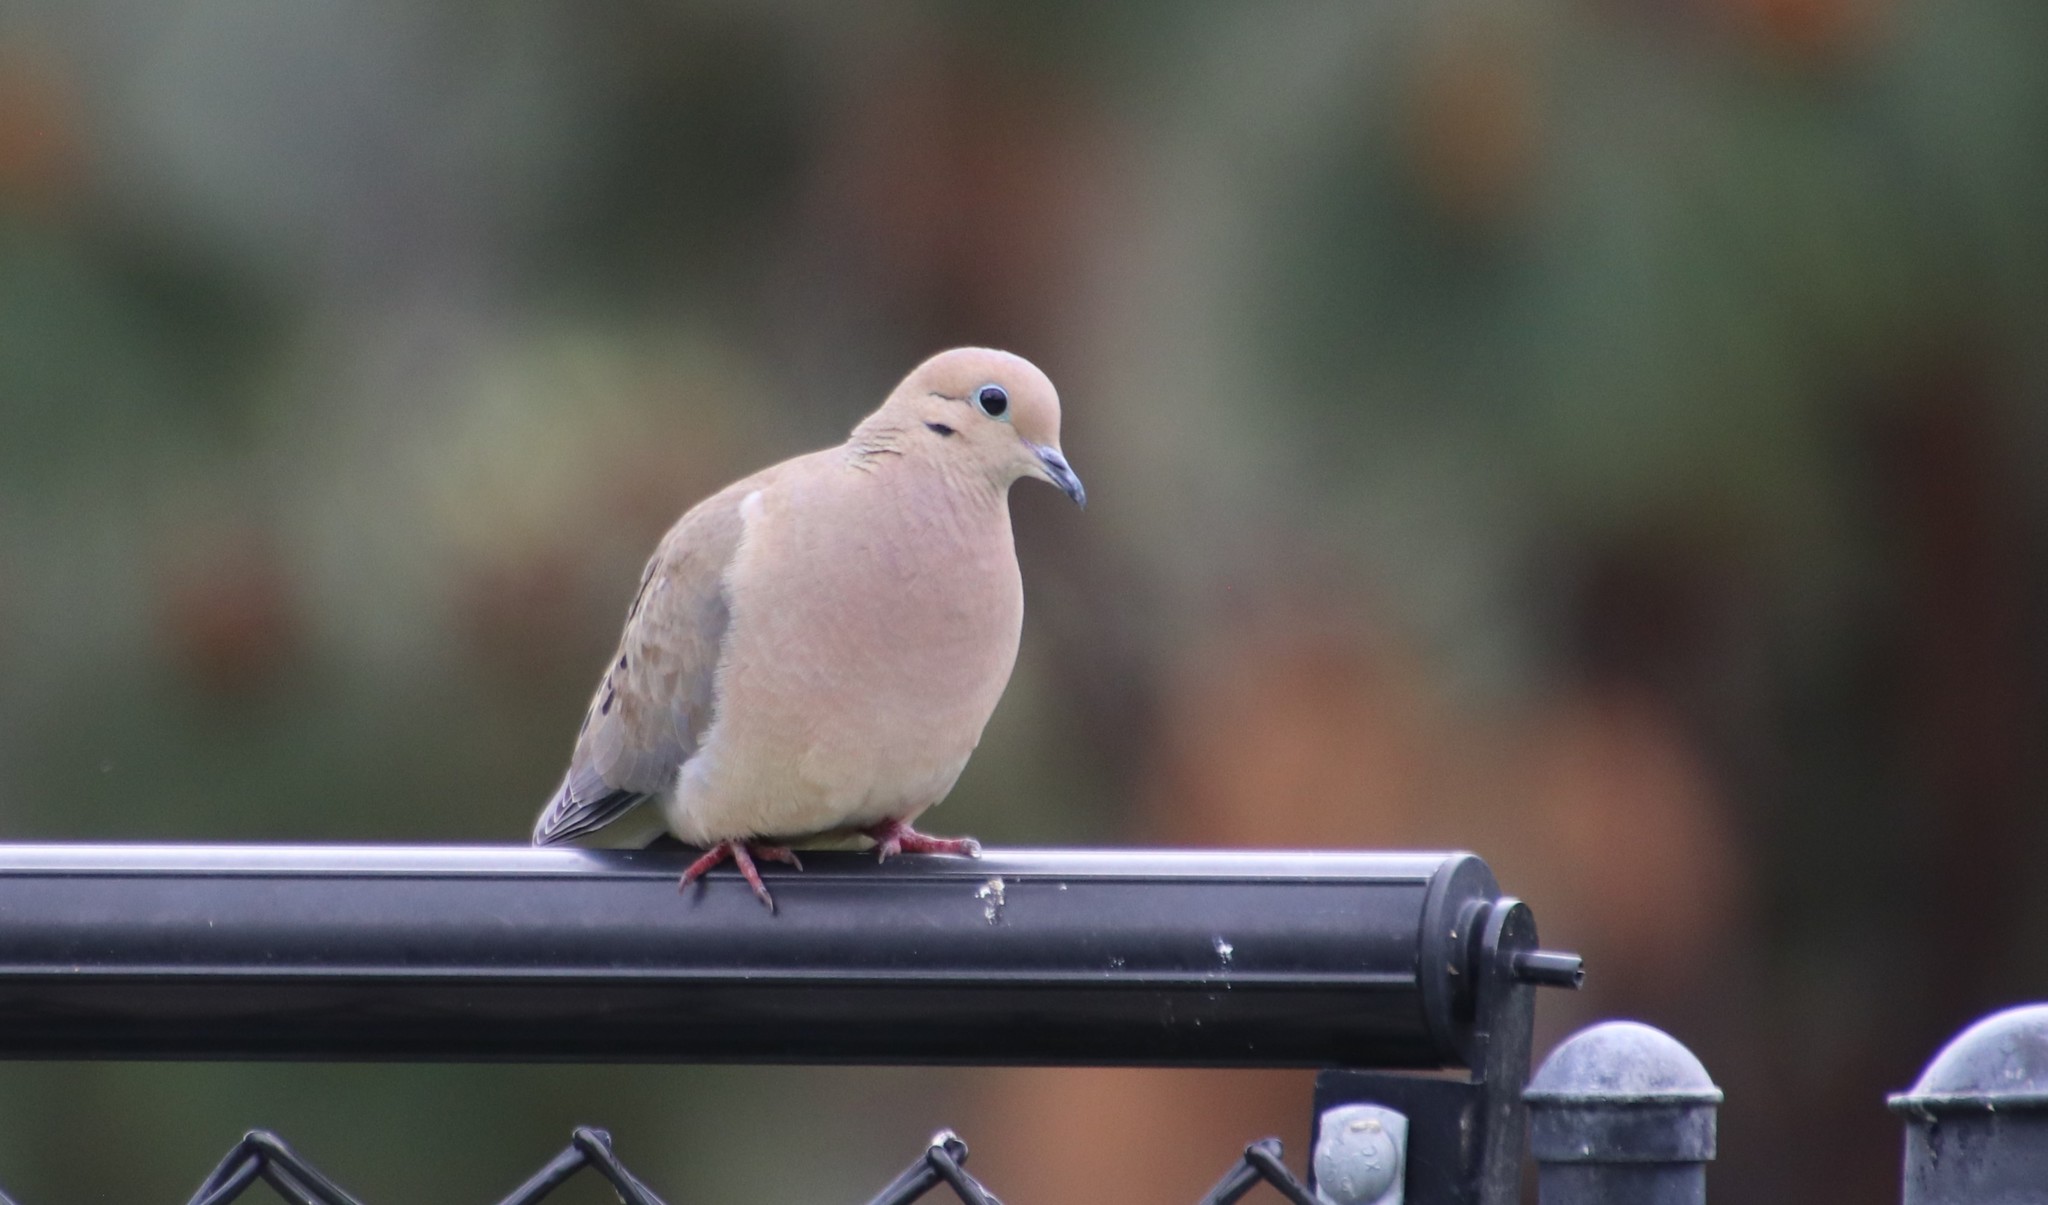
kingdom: Animalia
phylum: Chordata
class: Aves
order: Columbiformes
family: Columbidae
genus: Zenaida
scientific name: Zenaida macroura
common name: Mourning dove
